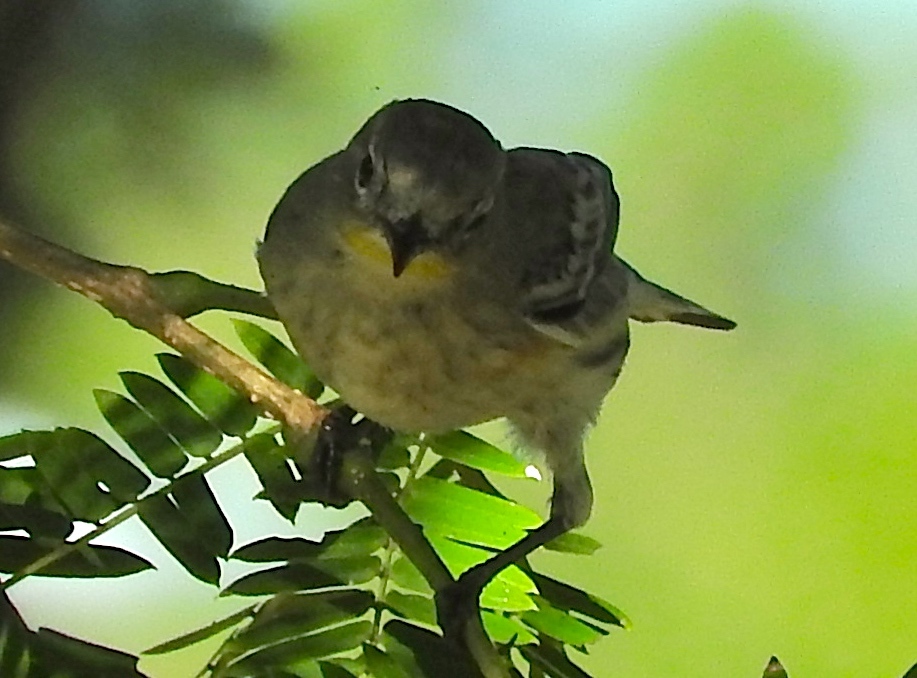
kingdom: Animalia
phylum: Chordata
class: Aves
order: Passeriformes
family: Parulidae
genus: Setophaga
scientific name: Setophaga coronata
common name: Myrtle warbler
